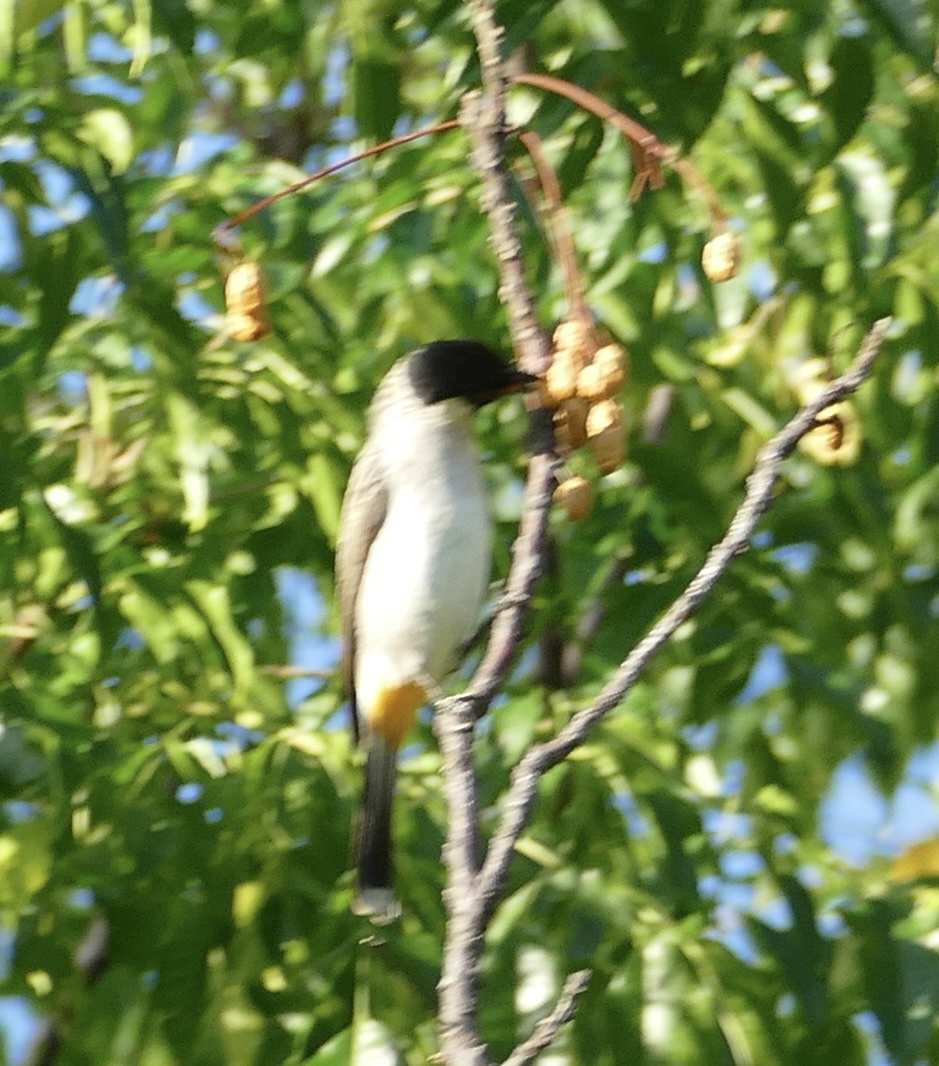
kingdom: Animalia
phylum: Chordata
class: Aves
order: Passeriformes
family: Pycnonotidae
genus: Pycnonotus
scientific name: Pycnonotus aurigaster
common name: Sooty-headed bulbul
